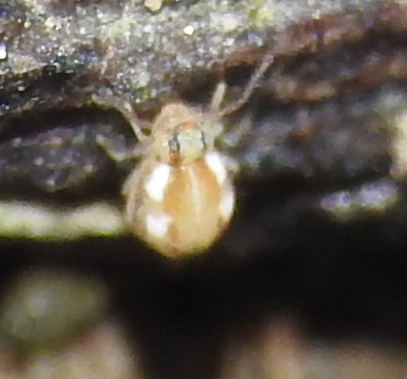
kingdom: Animalia
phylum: Arthropoda
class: Collembola
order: Symphypleona
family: Bourletiellidae
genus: Prorastriopes
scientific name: Prorastriopes coalingaensis
